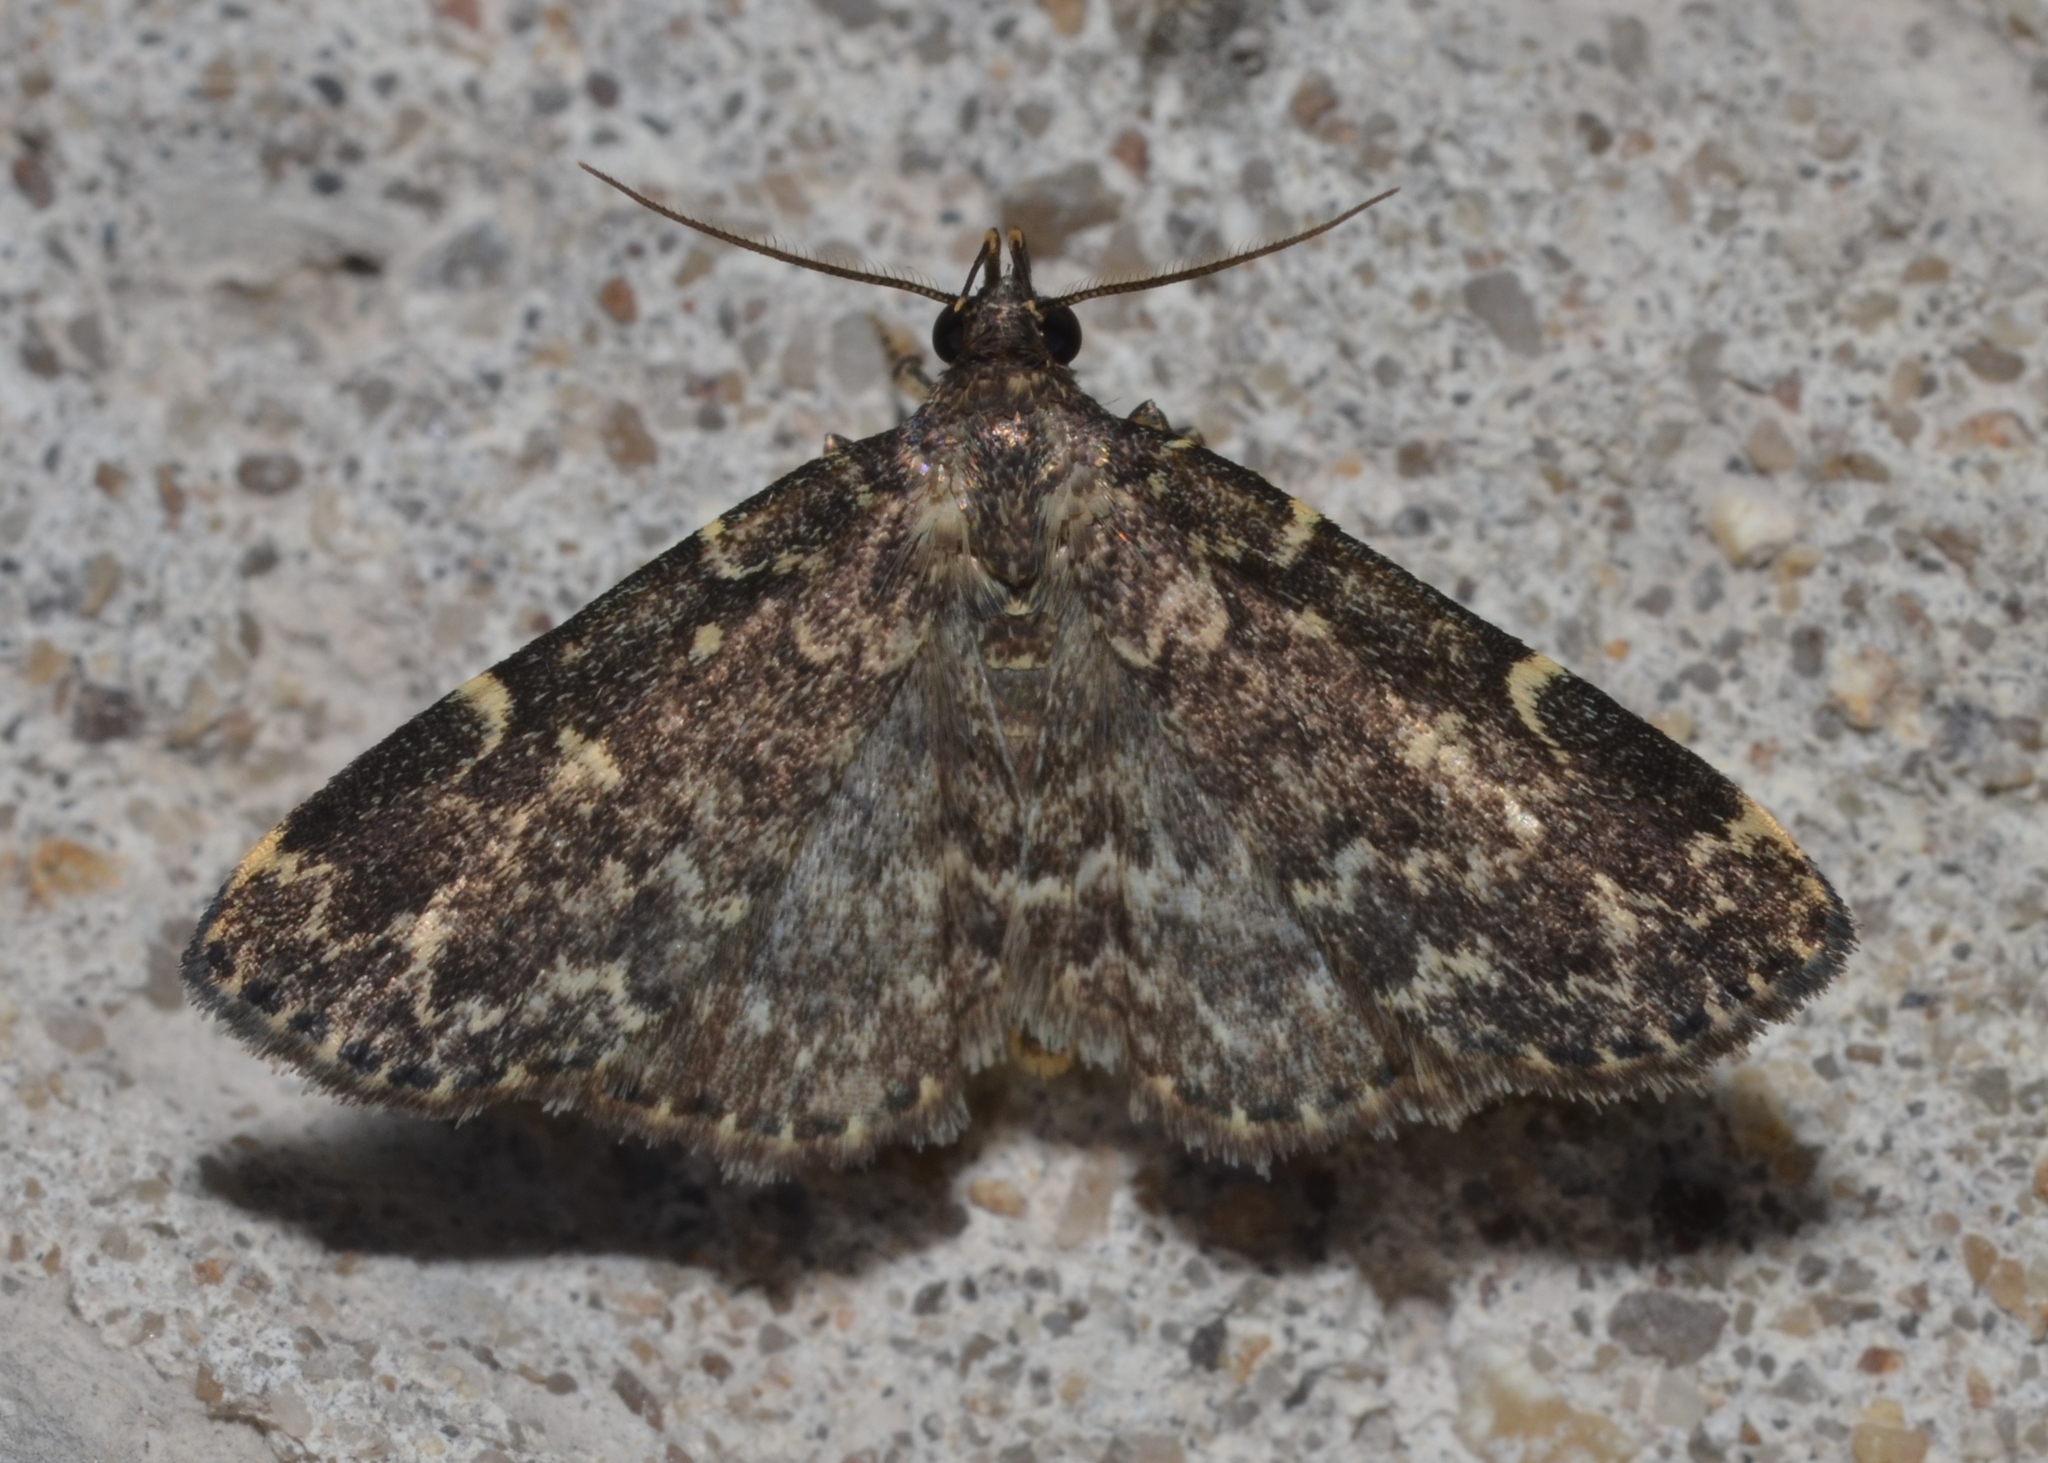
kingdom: Animalia
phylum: Arthropoda
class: Insecta
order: Lepidoptera
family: Erebidae
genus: Idia
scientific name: Idia scobialis
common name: Smoky idia moth
